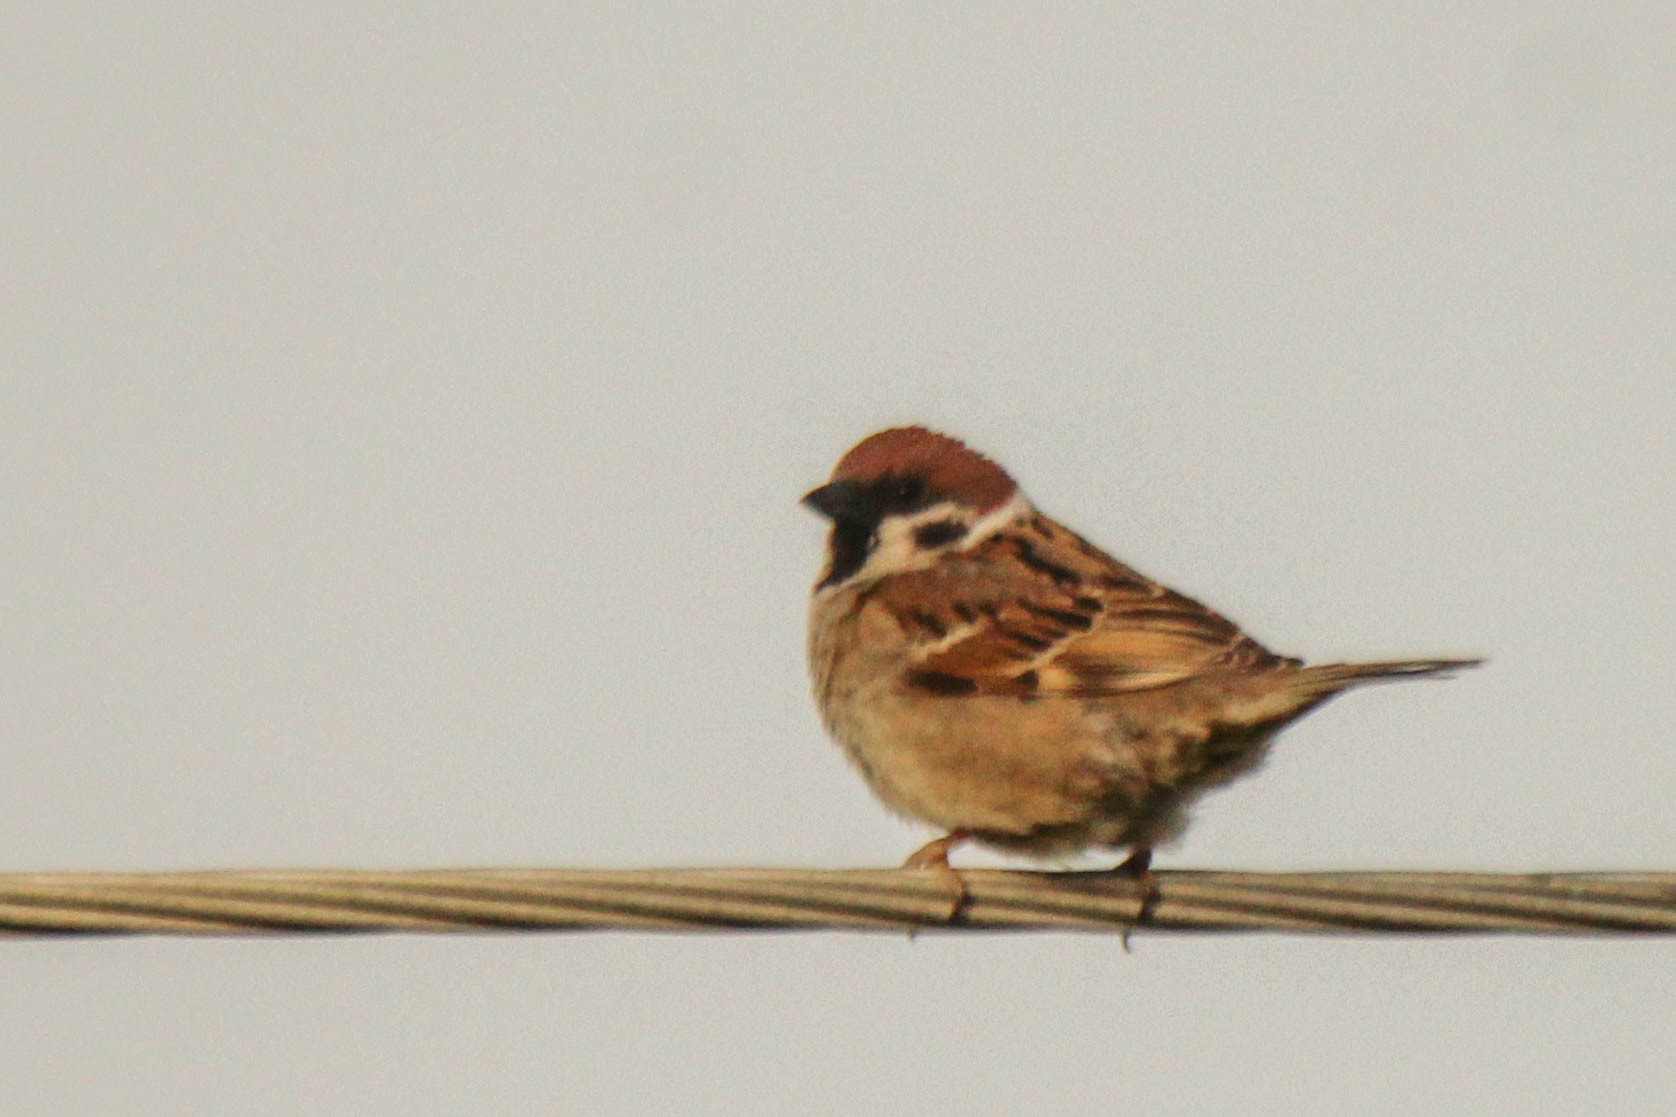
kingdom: Animalia
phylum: Chordata
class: Aves
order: Passeriformes
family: Passeridae
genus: Passer
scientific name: Passer montanus
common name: Eurasian tree sparrow
